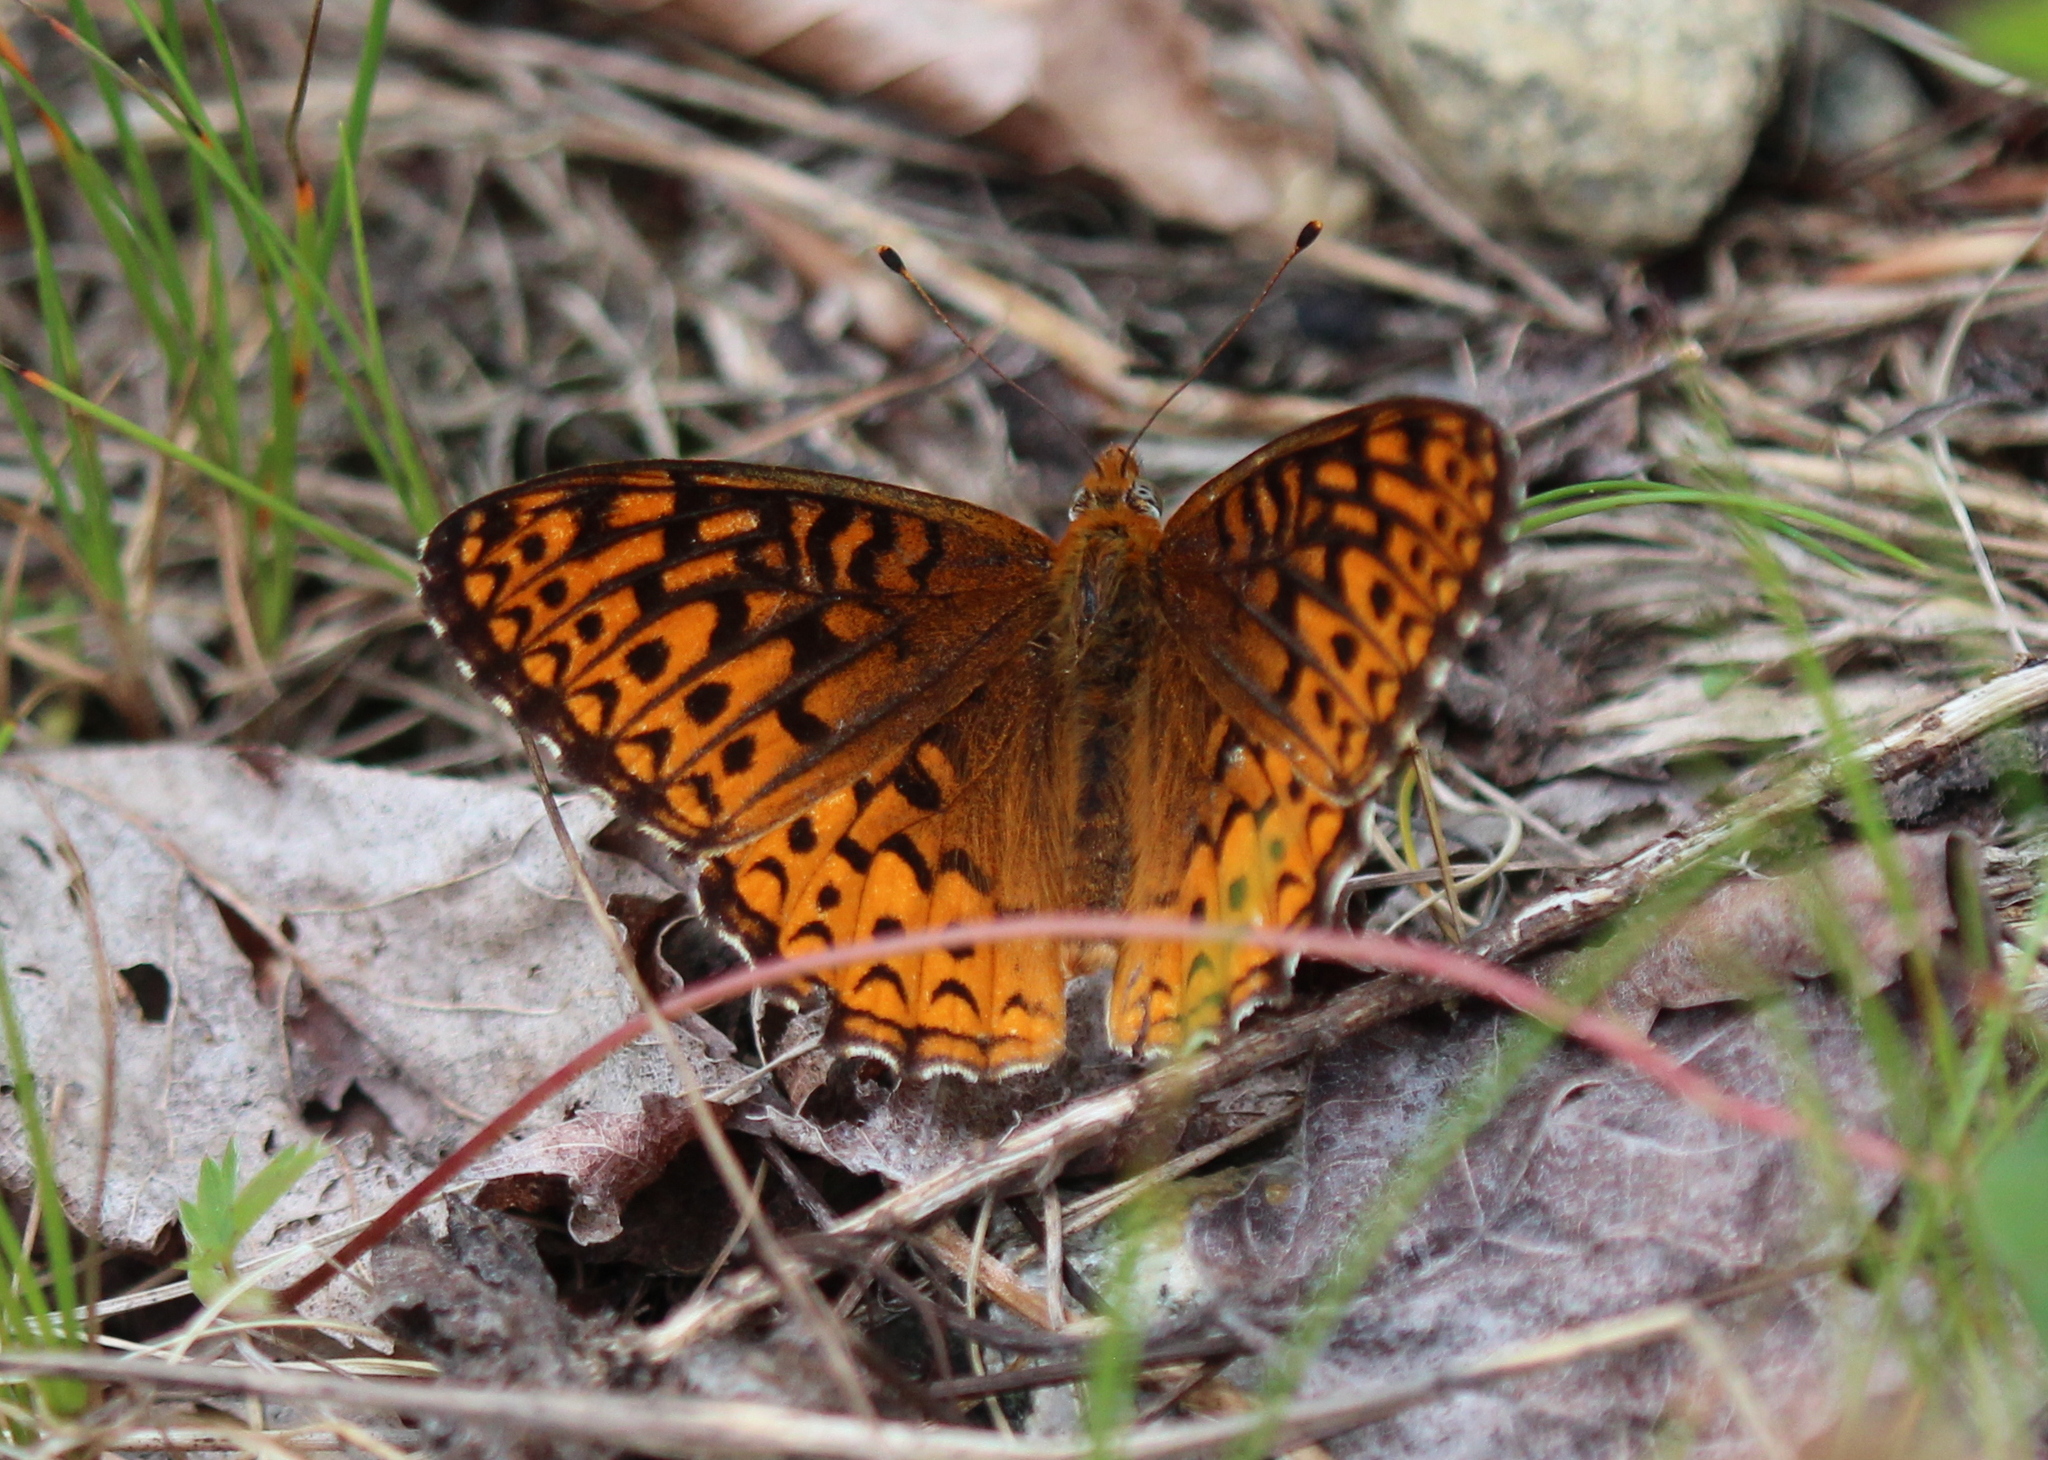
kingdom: Animalia
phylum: Arthropoda
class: Insecta
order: Lepidoptera
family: Nymphalidae
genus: Speyeria
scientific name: Speyeria atlantis
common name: Atlantis fritillary
